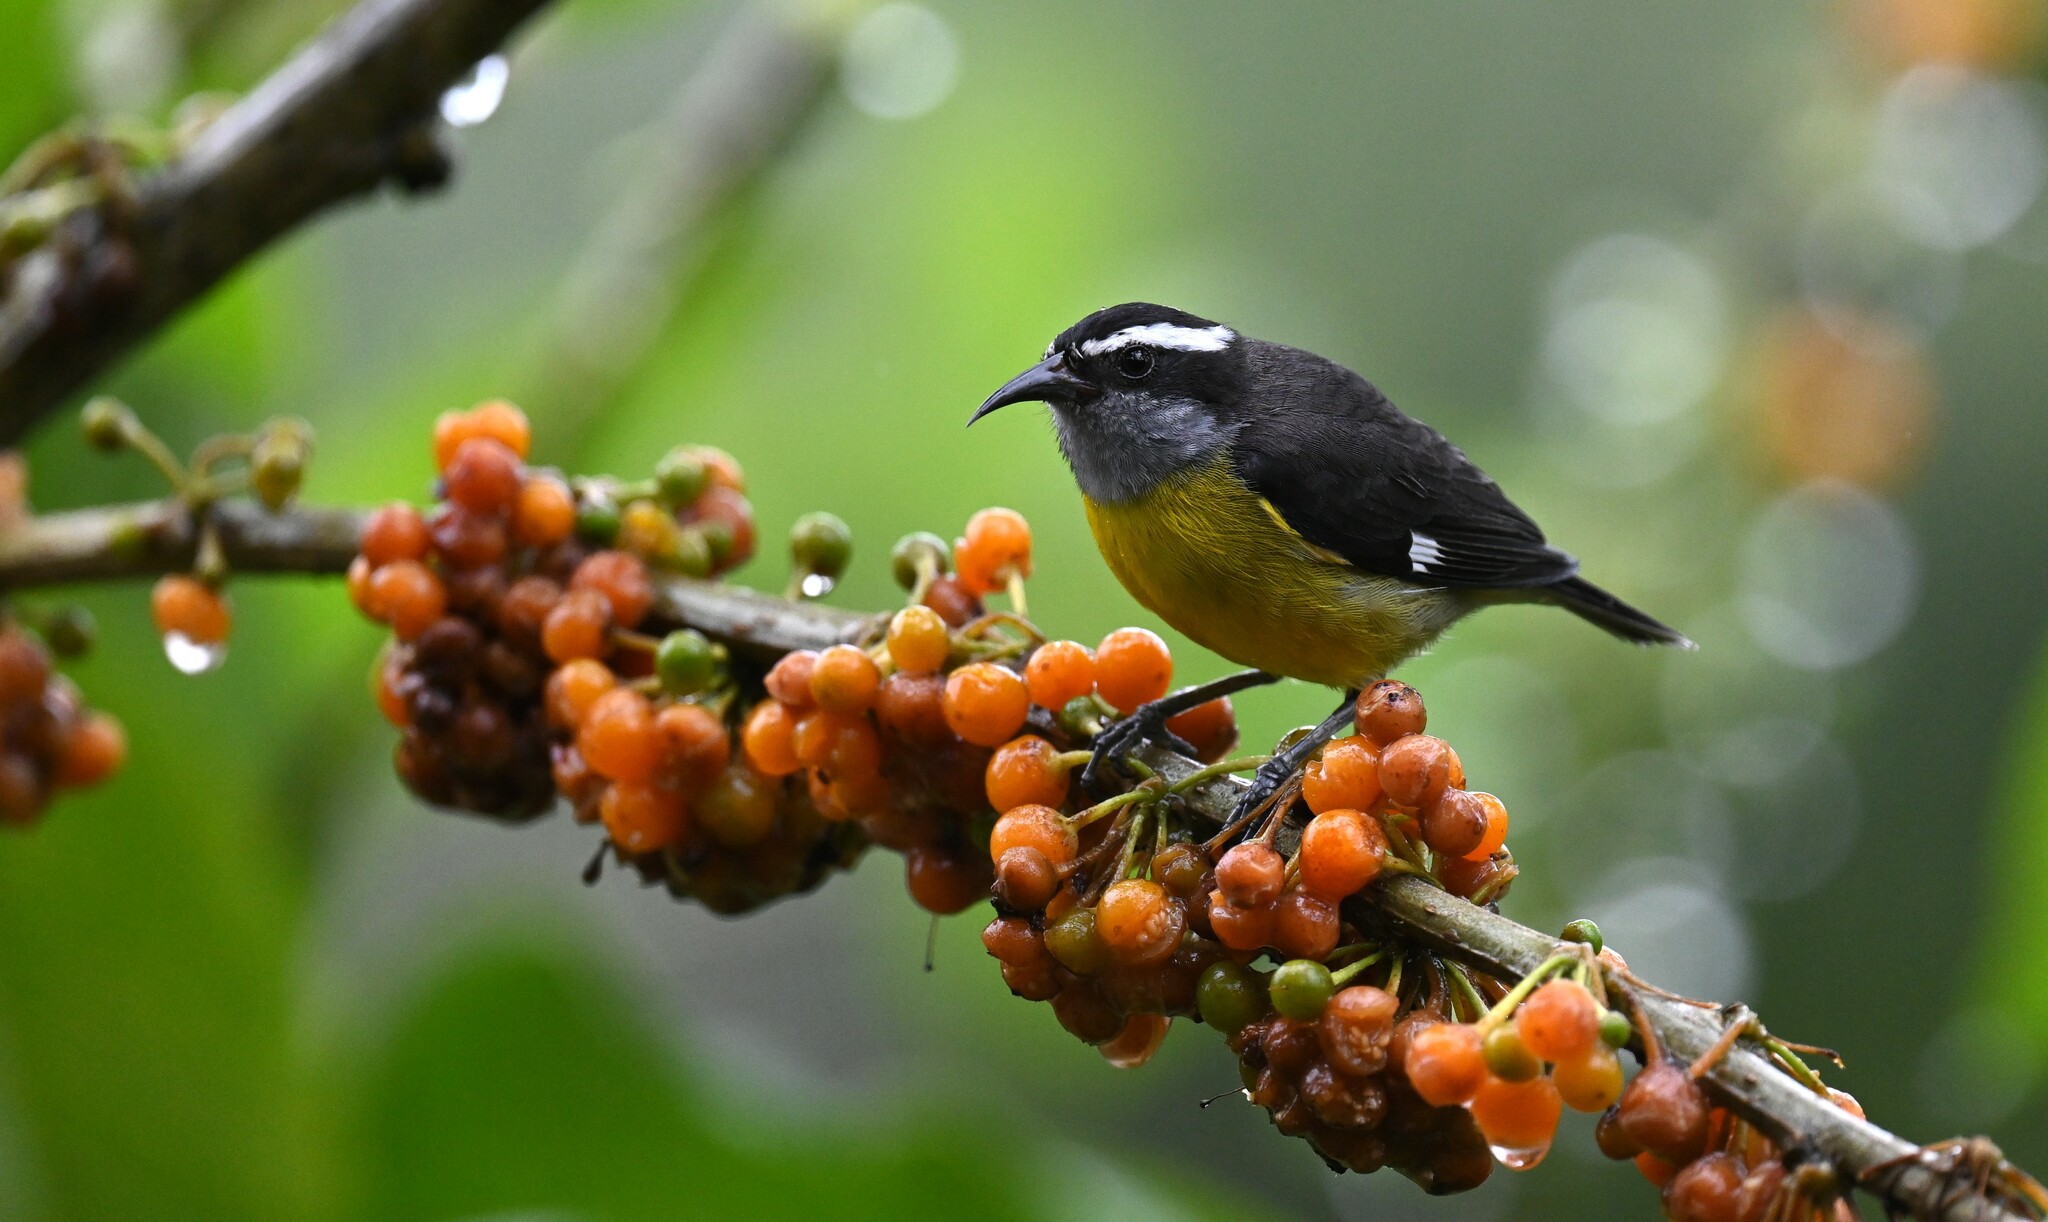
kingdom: Animalia
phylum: Chordata
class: Aves
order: Passeriformes
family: Thraupidae
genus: Coereba
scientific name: Coereba flaveola
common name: Bananaquit
